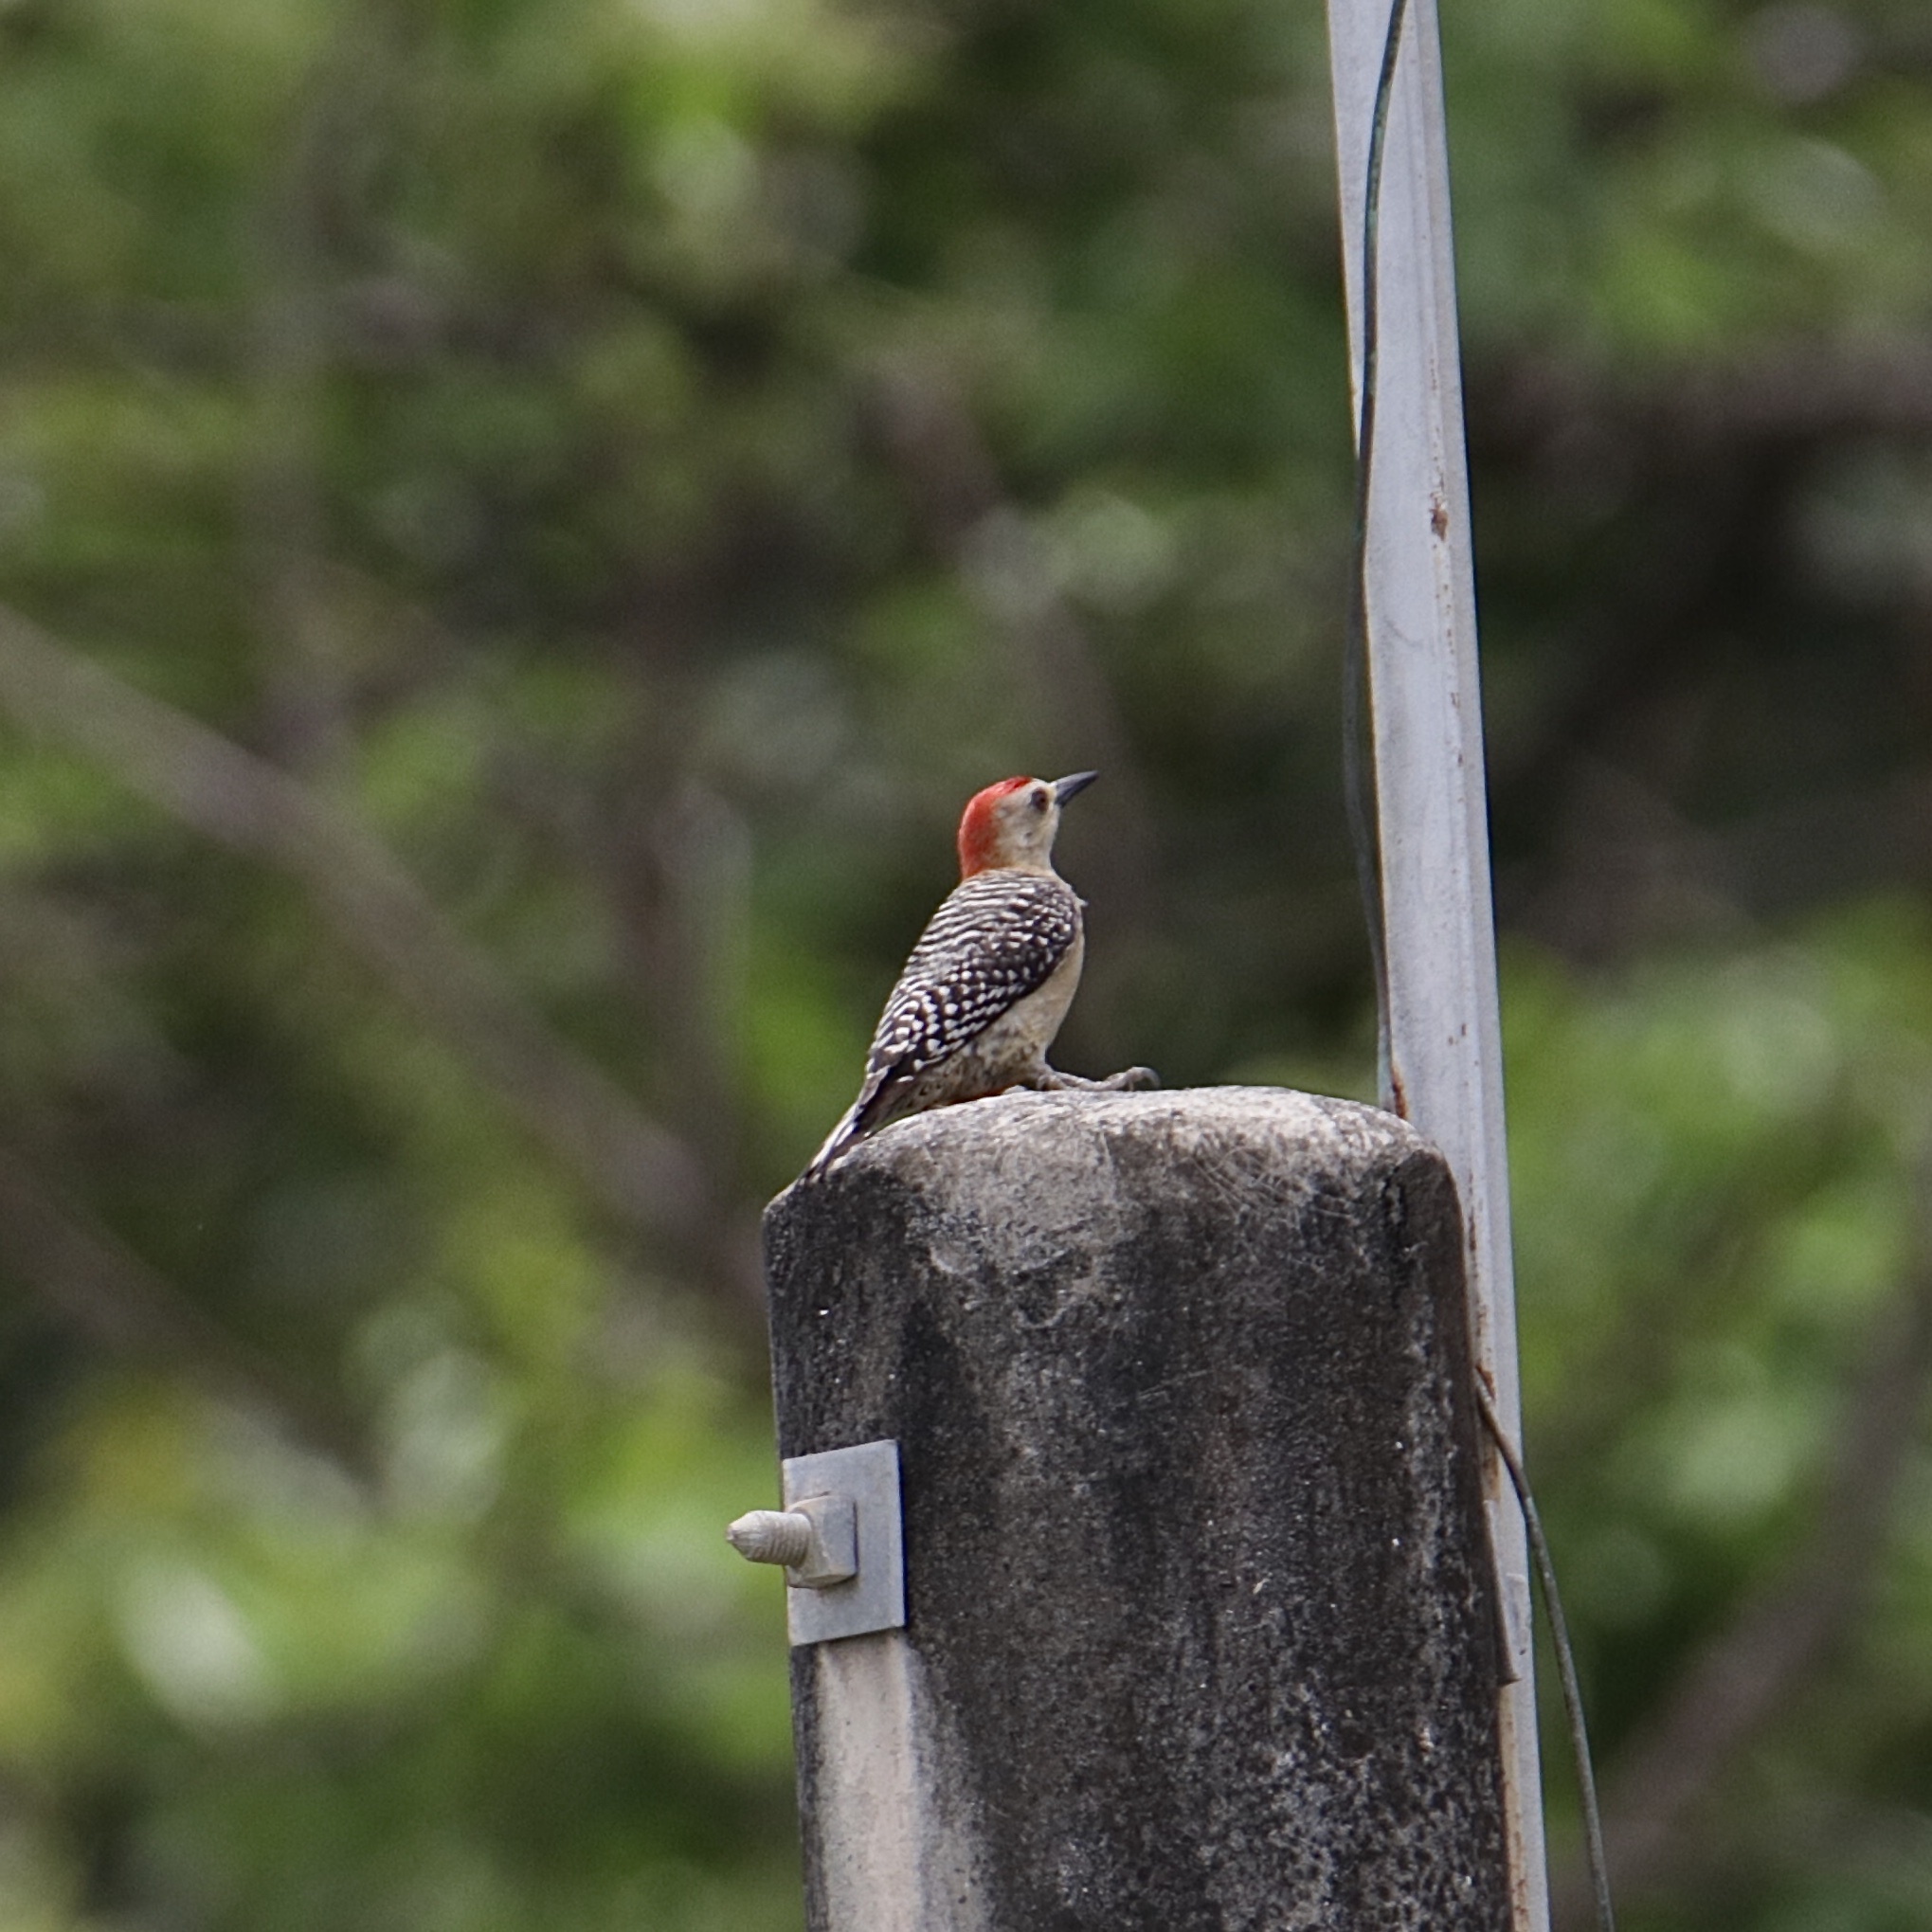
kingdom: Animalia
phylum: Chordata
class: Aves
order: Piciformes
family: Picidae
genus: Melanerpes
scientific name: Melanerpes rubricapillus
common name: Red-crowned woodpecker
